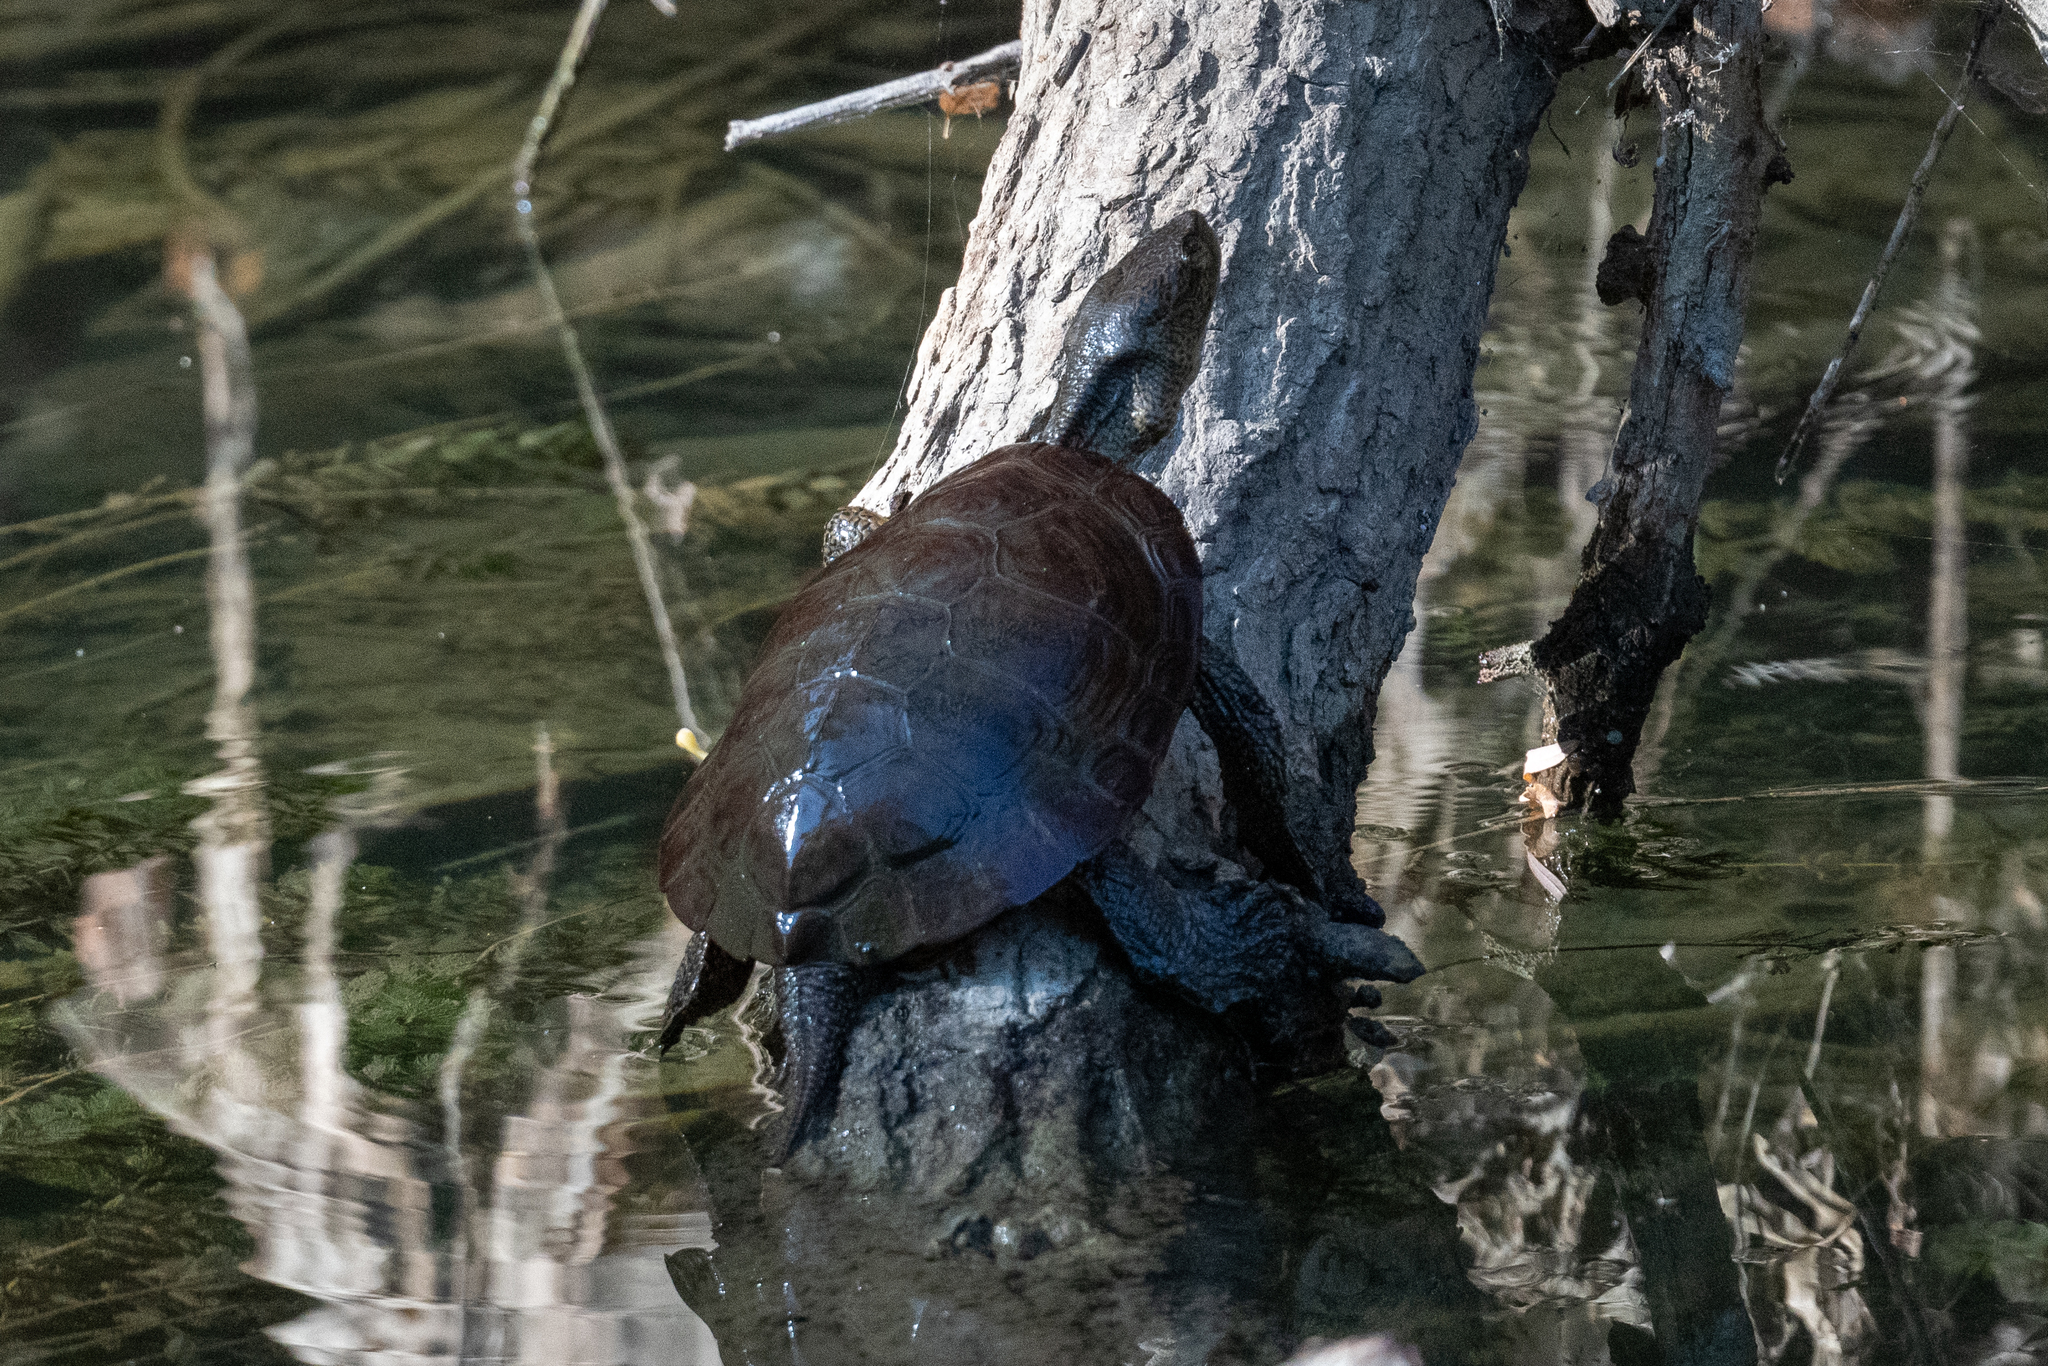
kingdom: Animalia
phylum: Chordata
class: Testudines
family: Emydidae
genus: Actinemys
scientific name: Actinemys marmorata
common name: Western pond turtle
